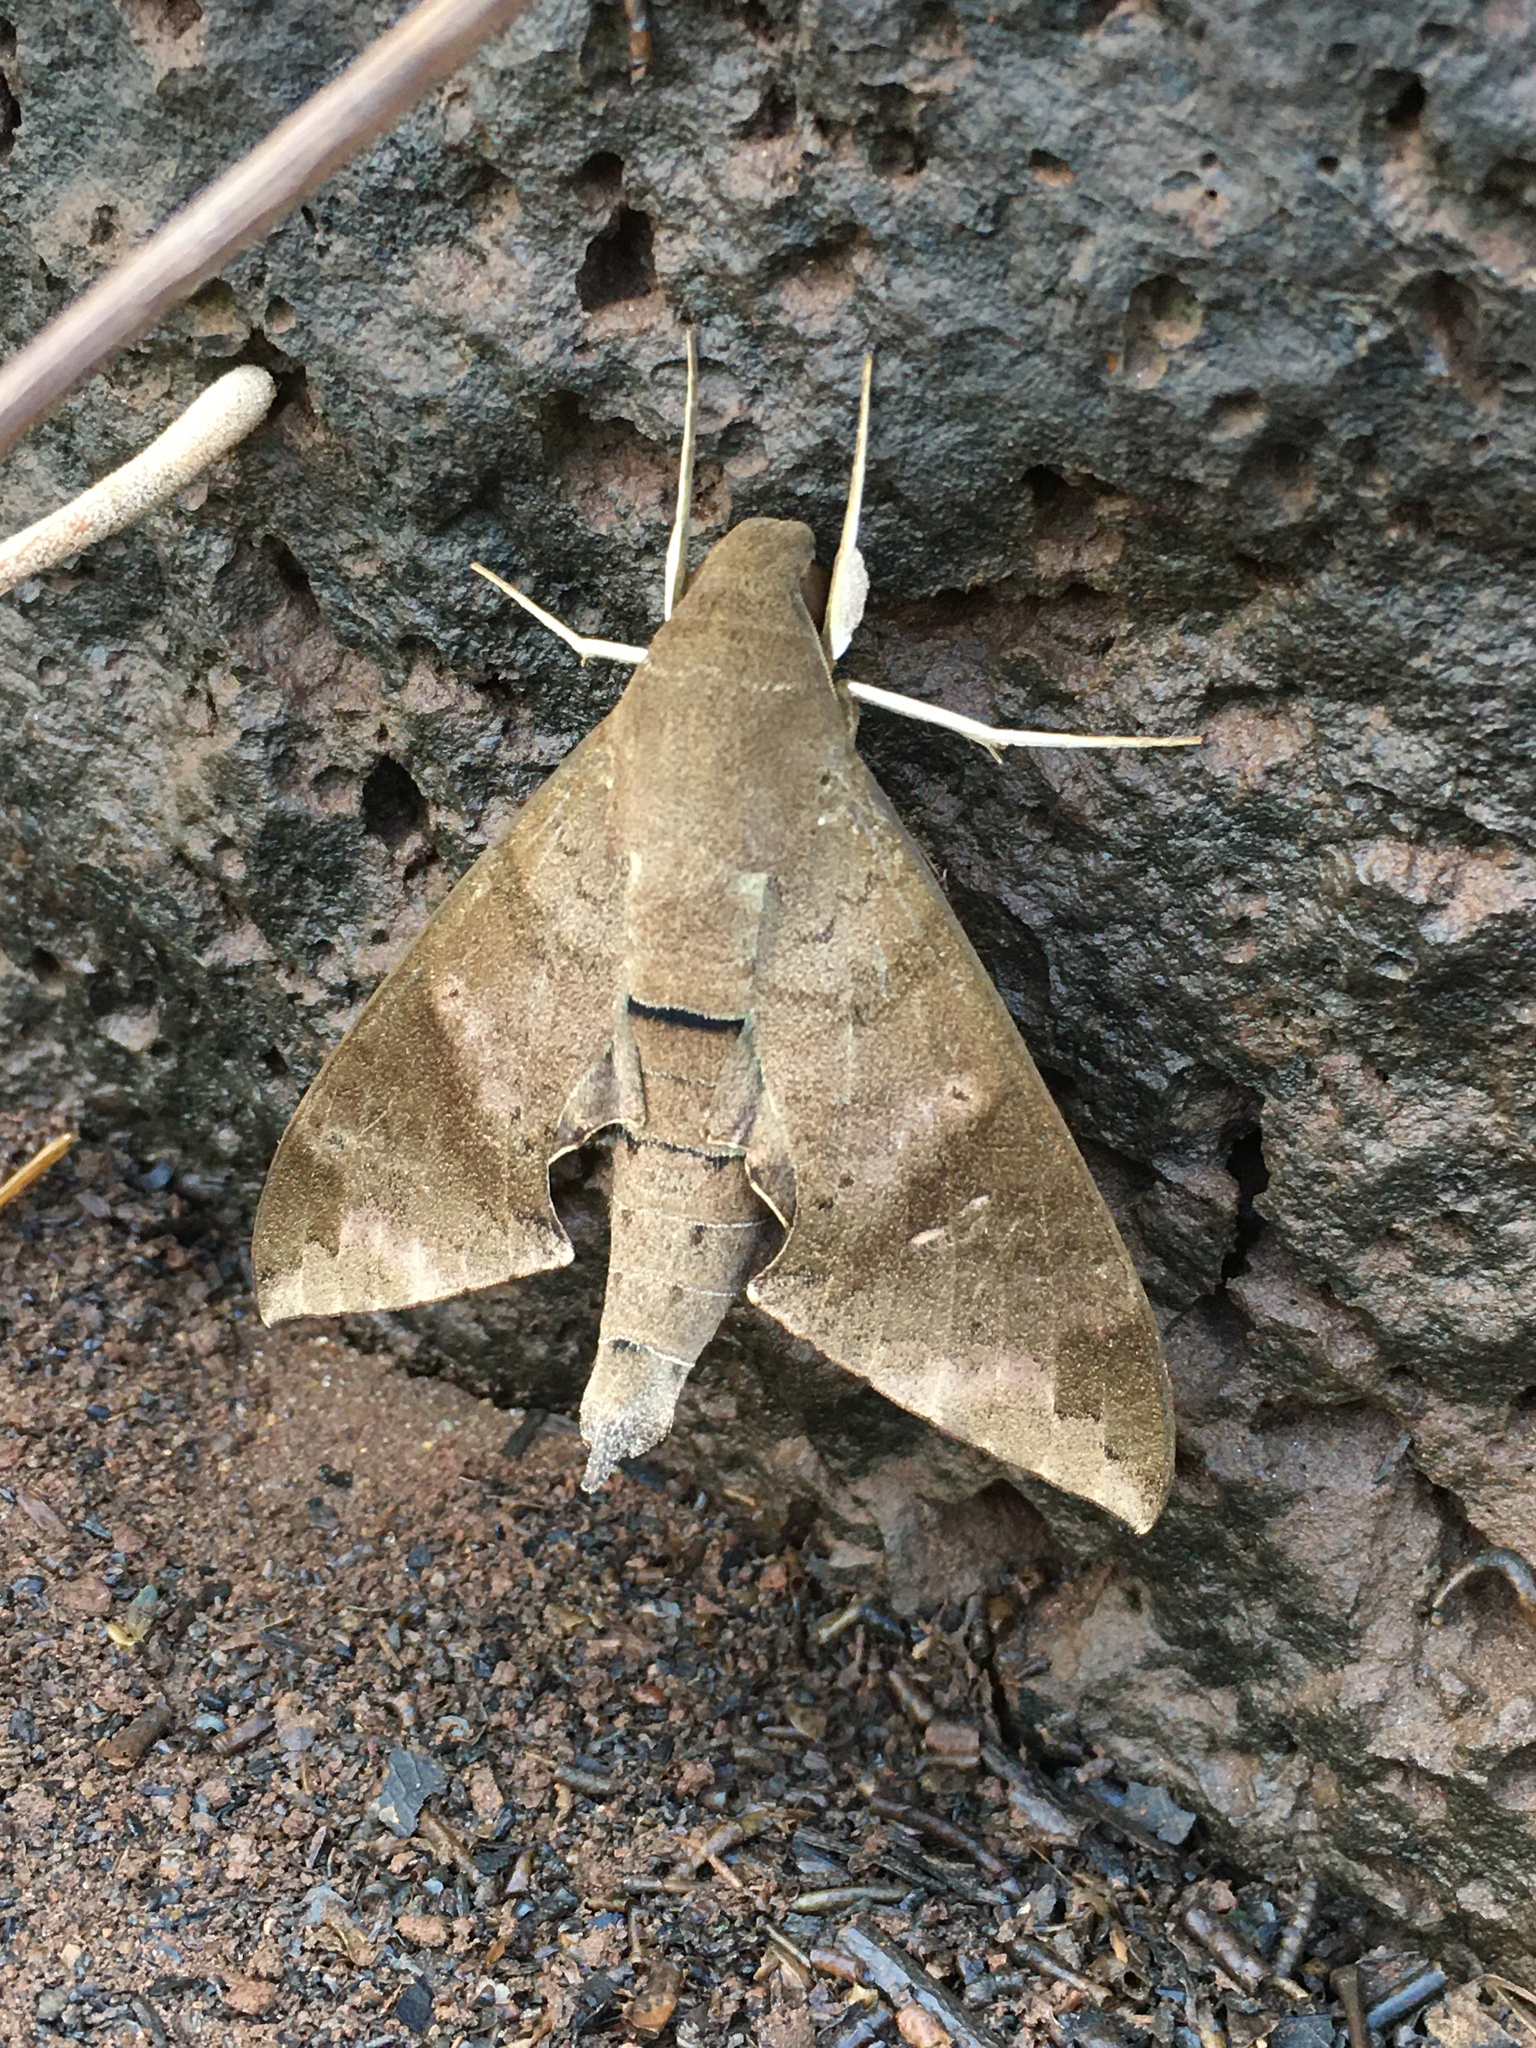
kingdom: Animalia
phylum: Arthropoda
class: Insecta
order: Lepidoptera
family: Sphingidae
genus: Pachylioides
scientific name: Pachylioides resumens
